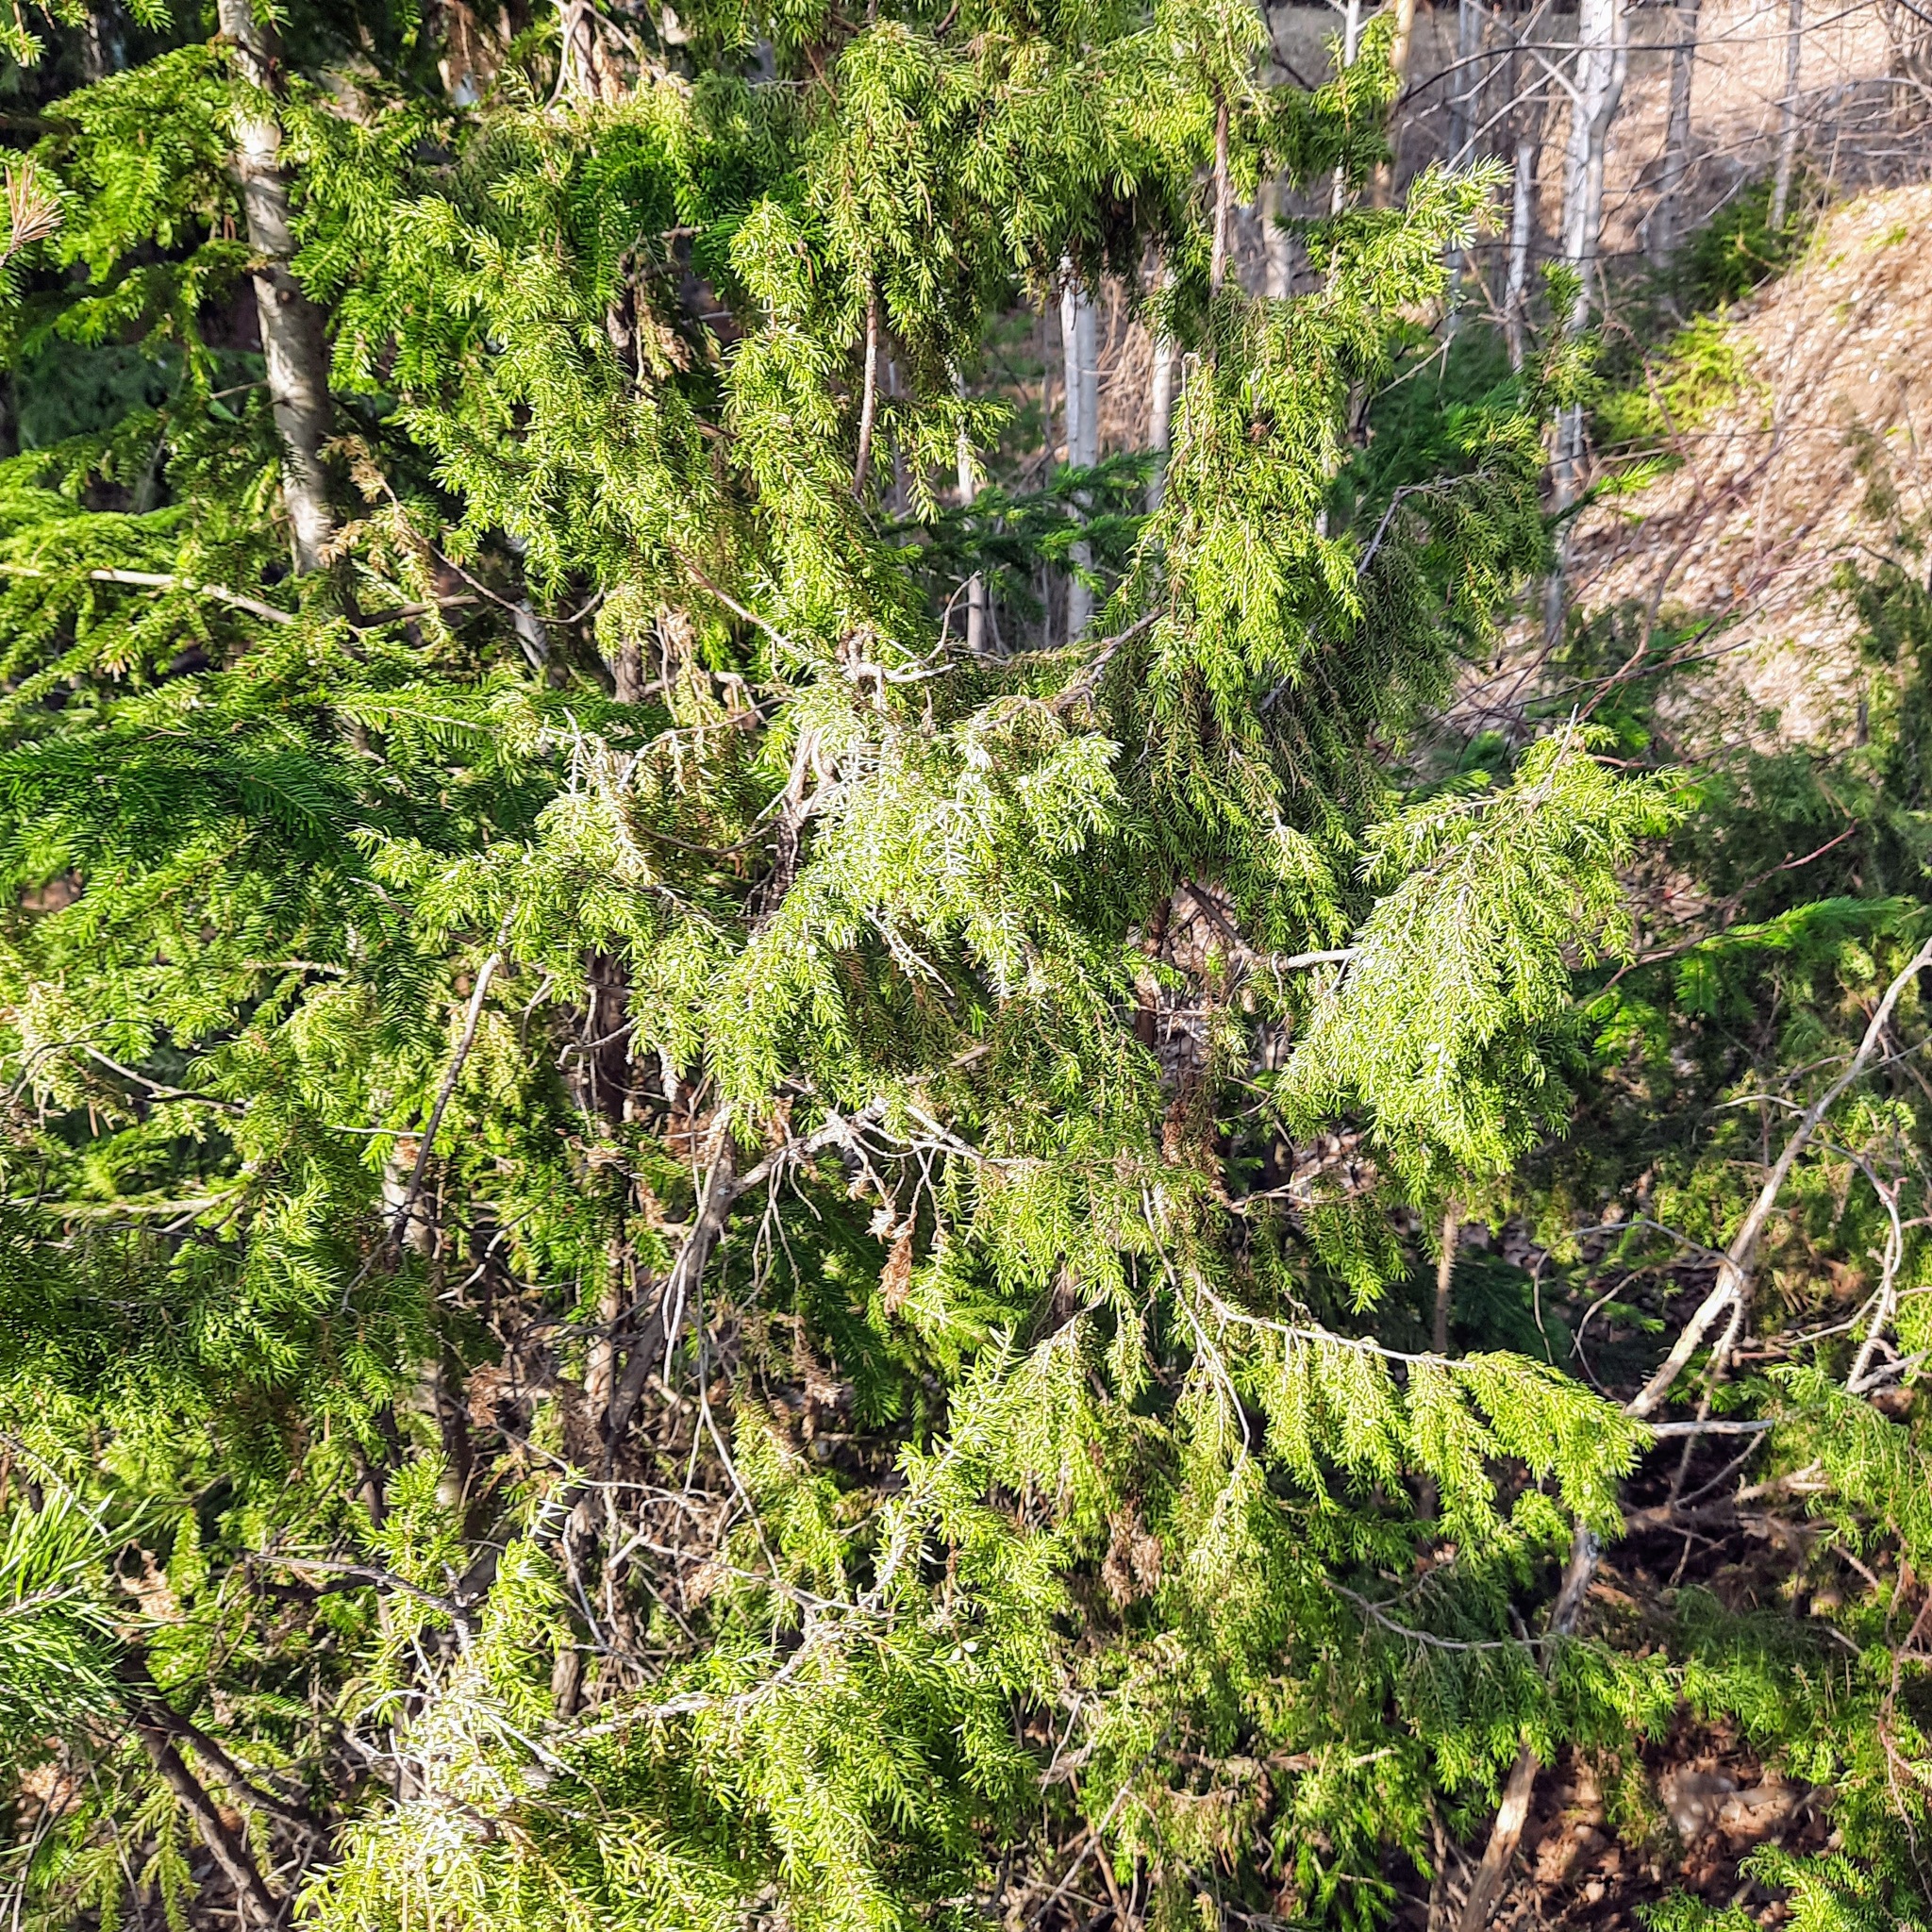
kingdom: Plantae
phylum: Tracheophyta
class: Pinopsida
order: Pinales
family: Cupressaceae
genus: Juniperus
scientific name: Juniperus communis
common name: Common juniper
